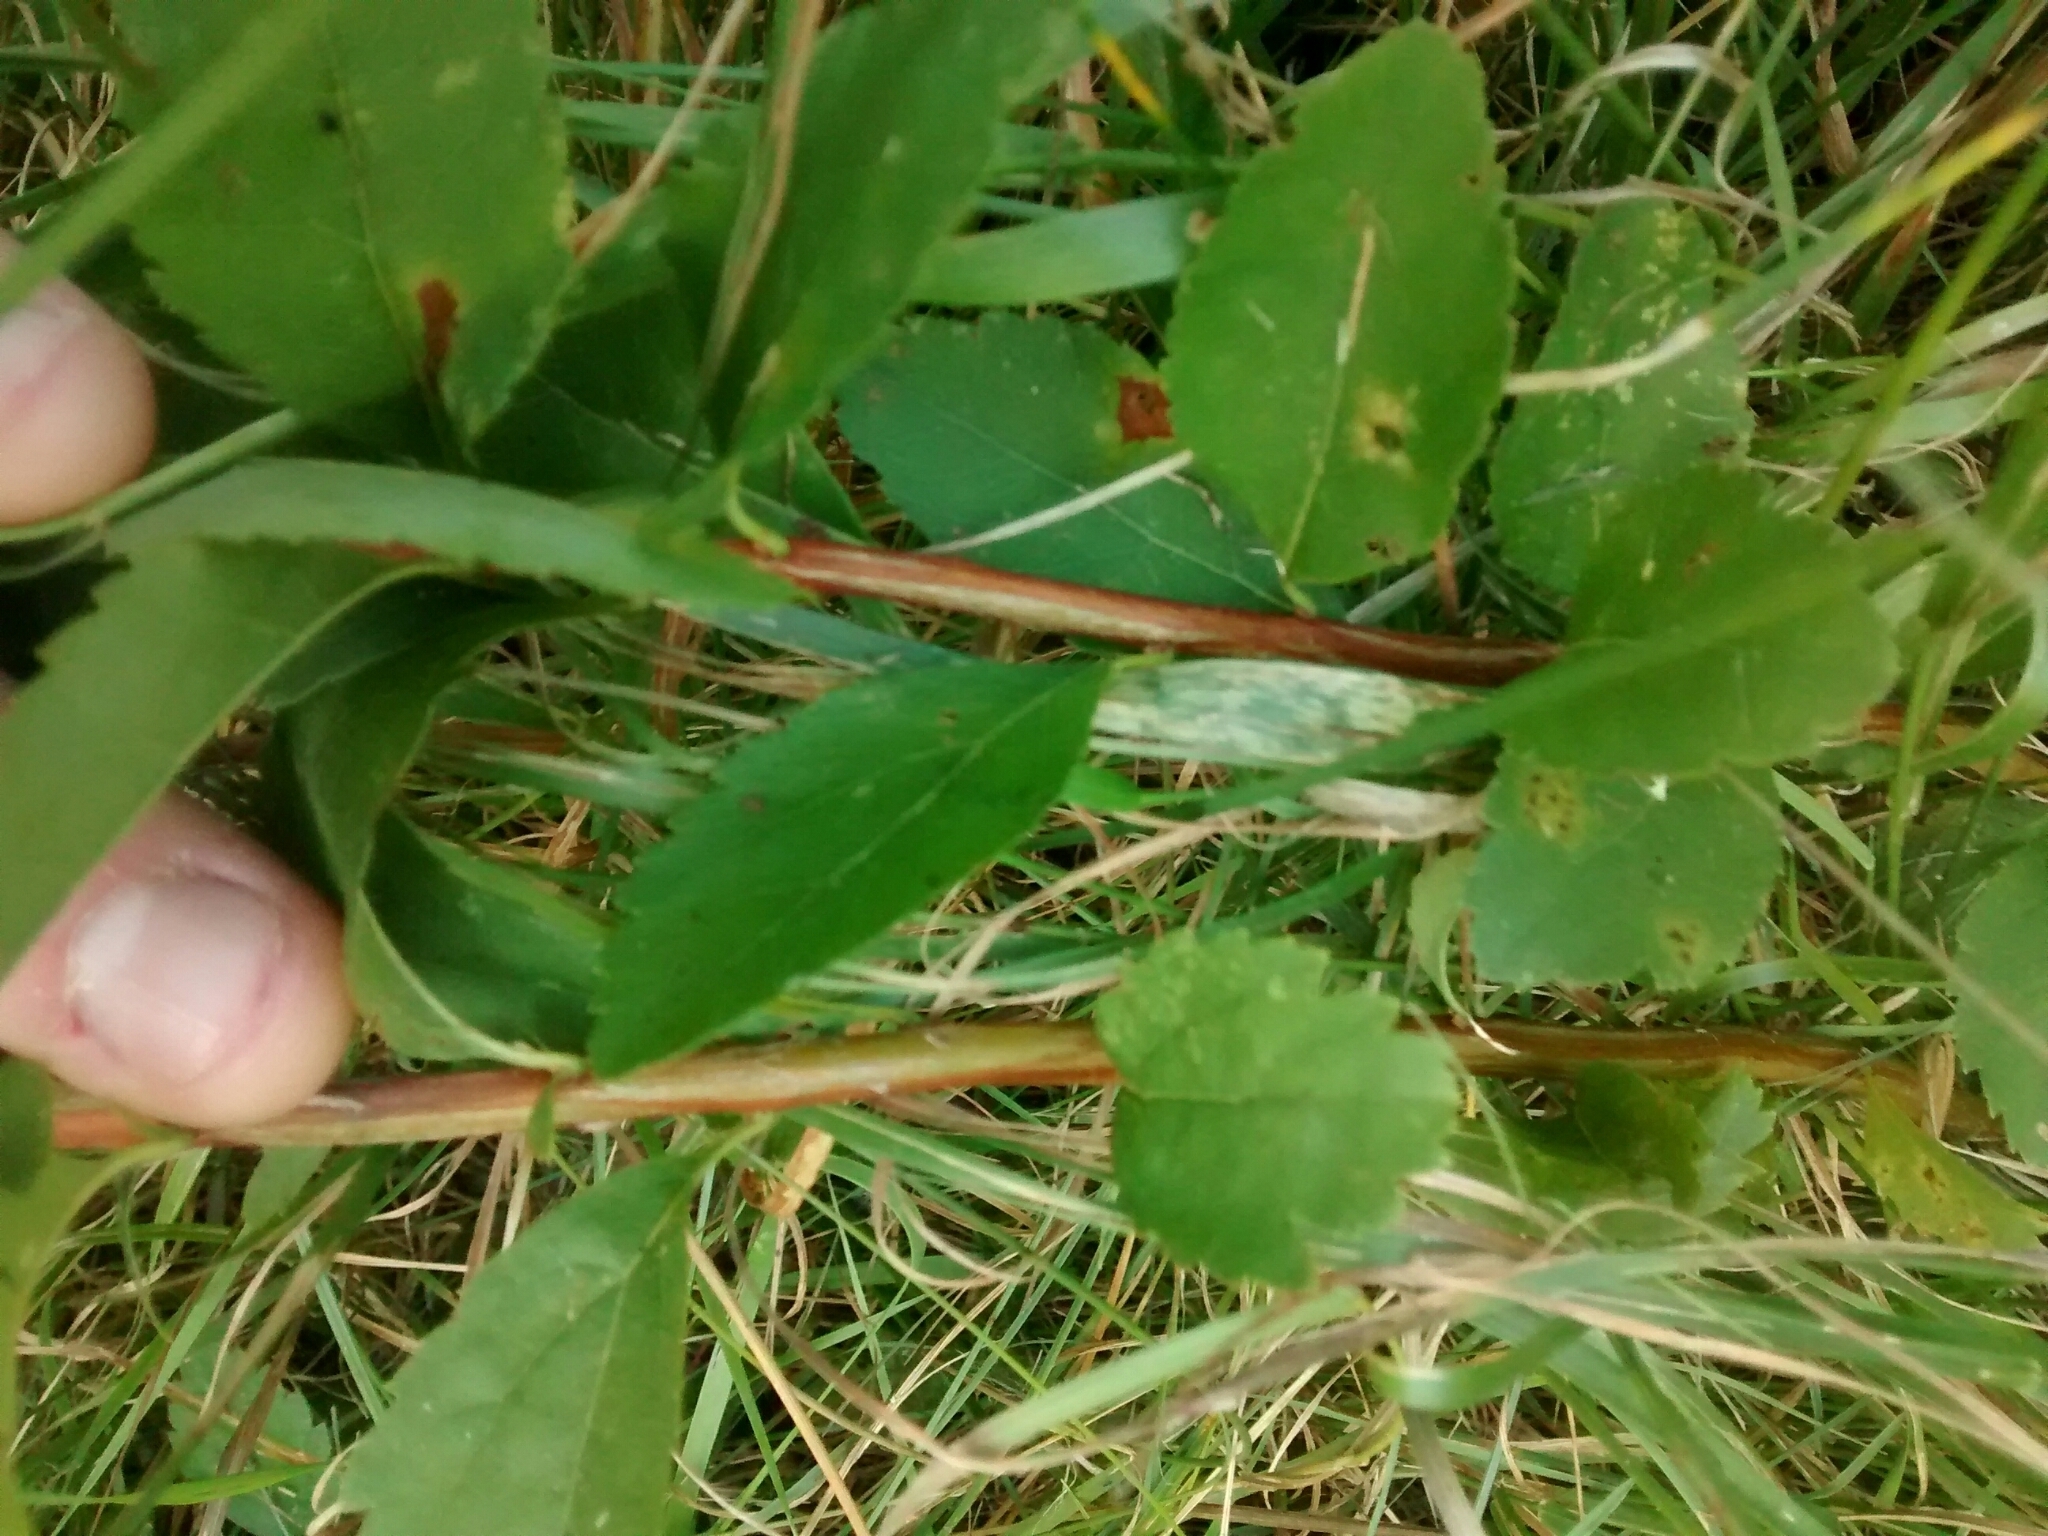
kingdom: Plantae
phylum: Tracheophyta
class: Magnoliopsida
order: Rosales
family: Rosaceae
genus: Spiraea
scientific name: Spiraea alba
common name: Pale bridewort
